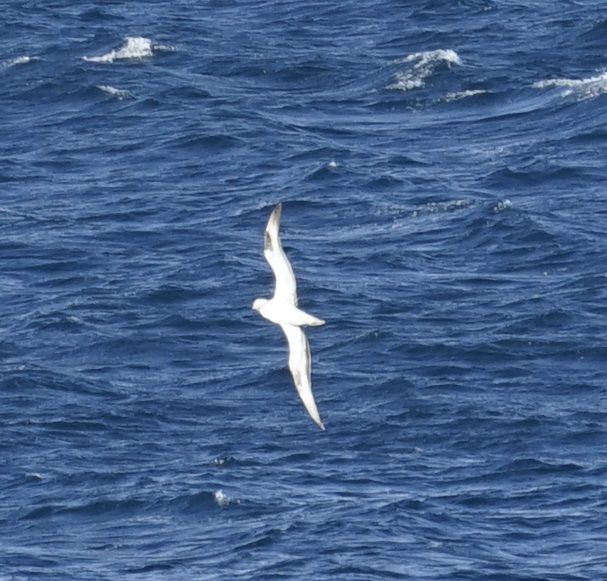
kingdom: Animalia
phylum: Chordata
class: Aves
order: Suliformes
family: Sulidae
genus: Morus
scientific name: Morus serrator
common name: Australasian gannet
